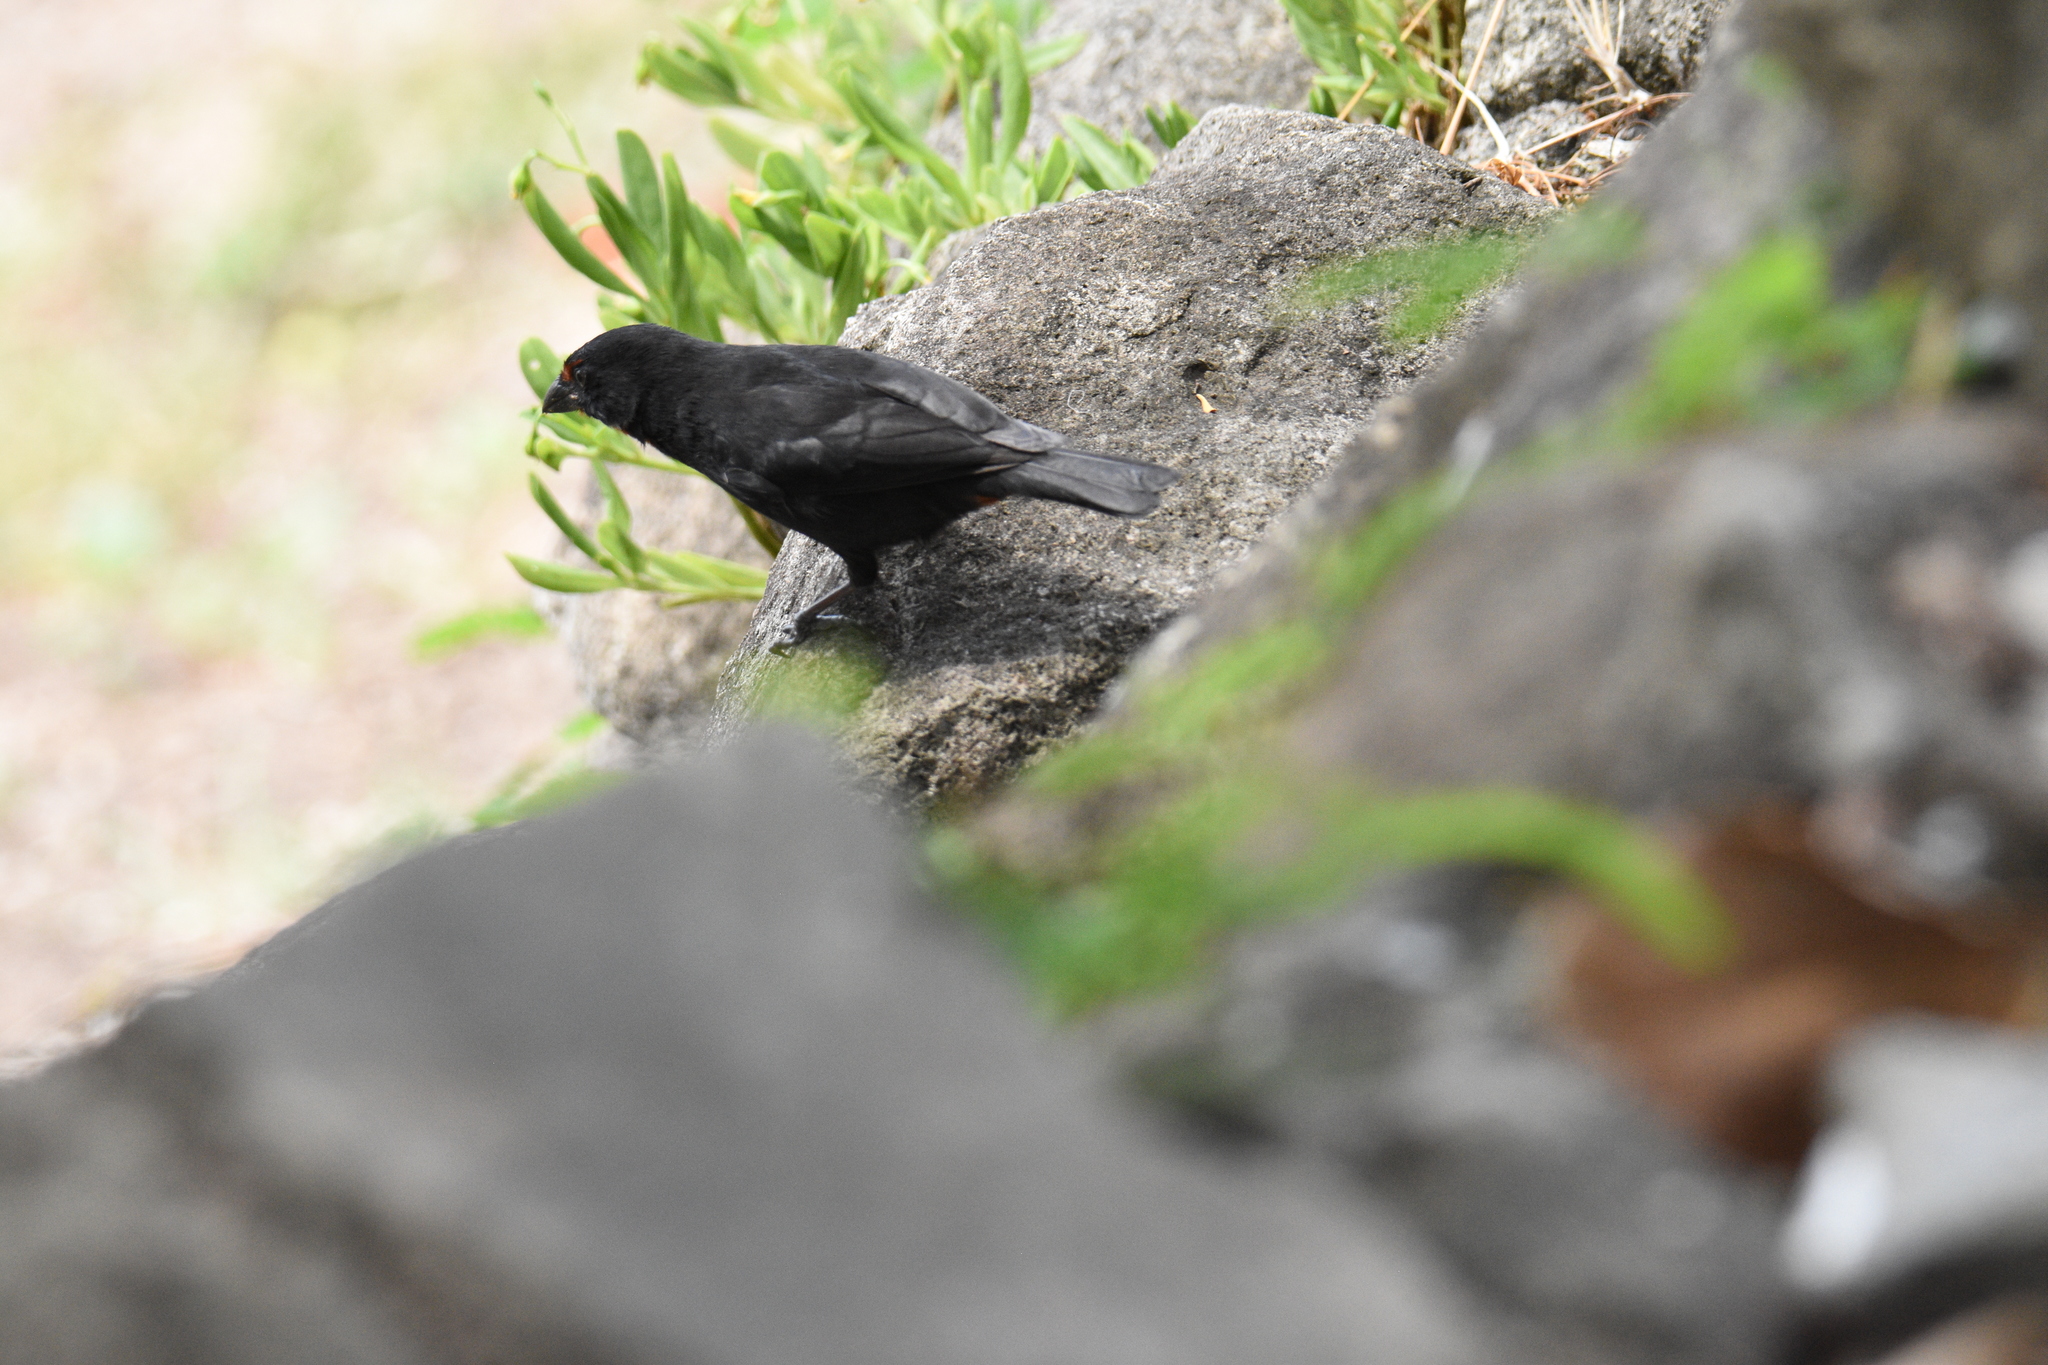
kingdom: Animalia
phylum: Chordata
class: Aves
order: Passeriformes
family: Thraupidae
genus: Loxigilla
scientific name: Loxigilla noctis
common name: Lesser antillean bullfinch
